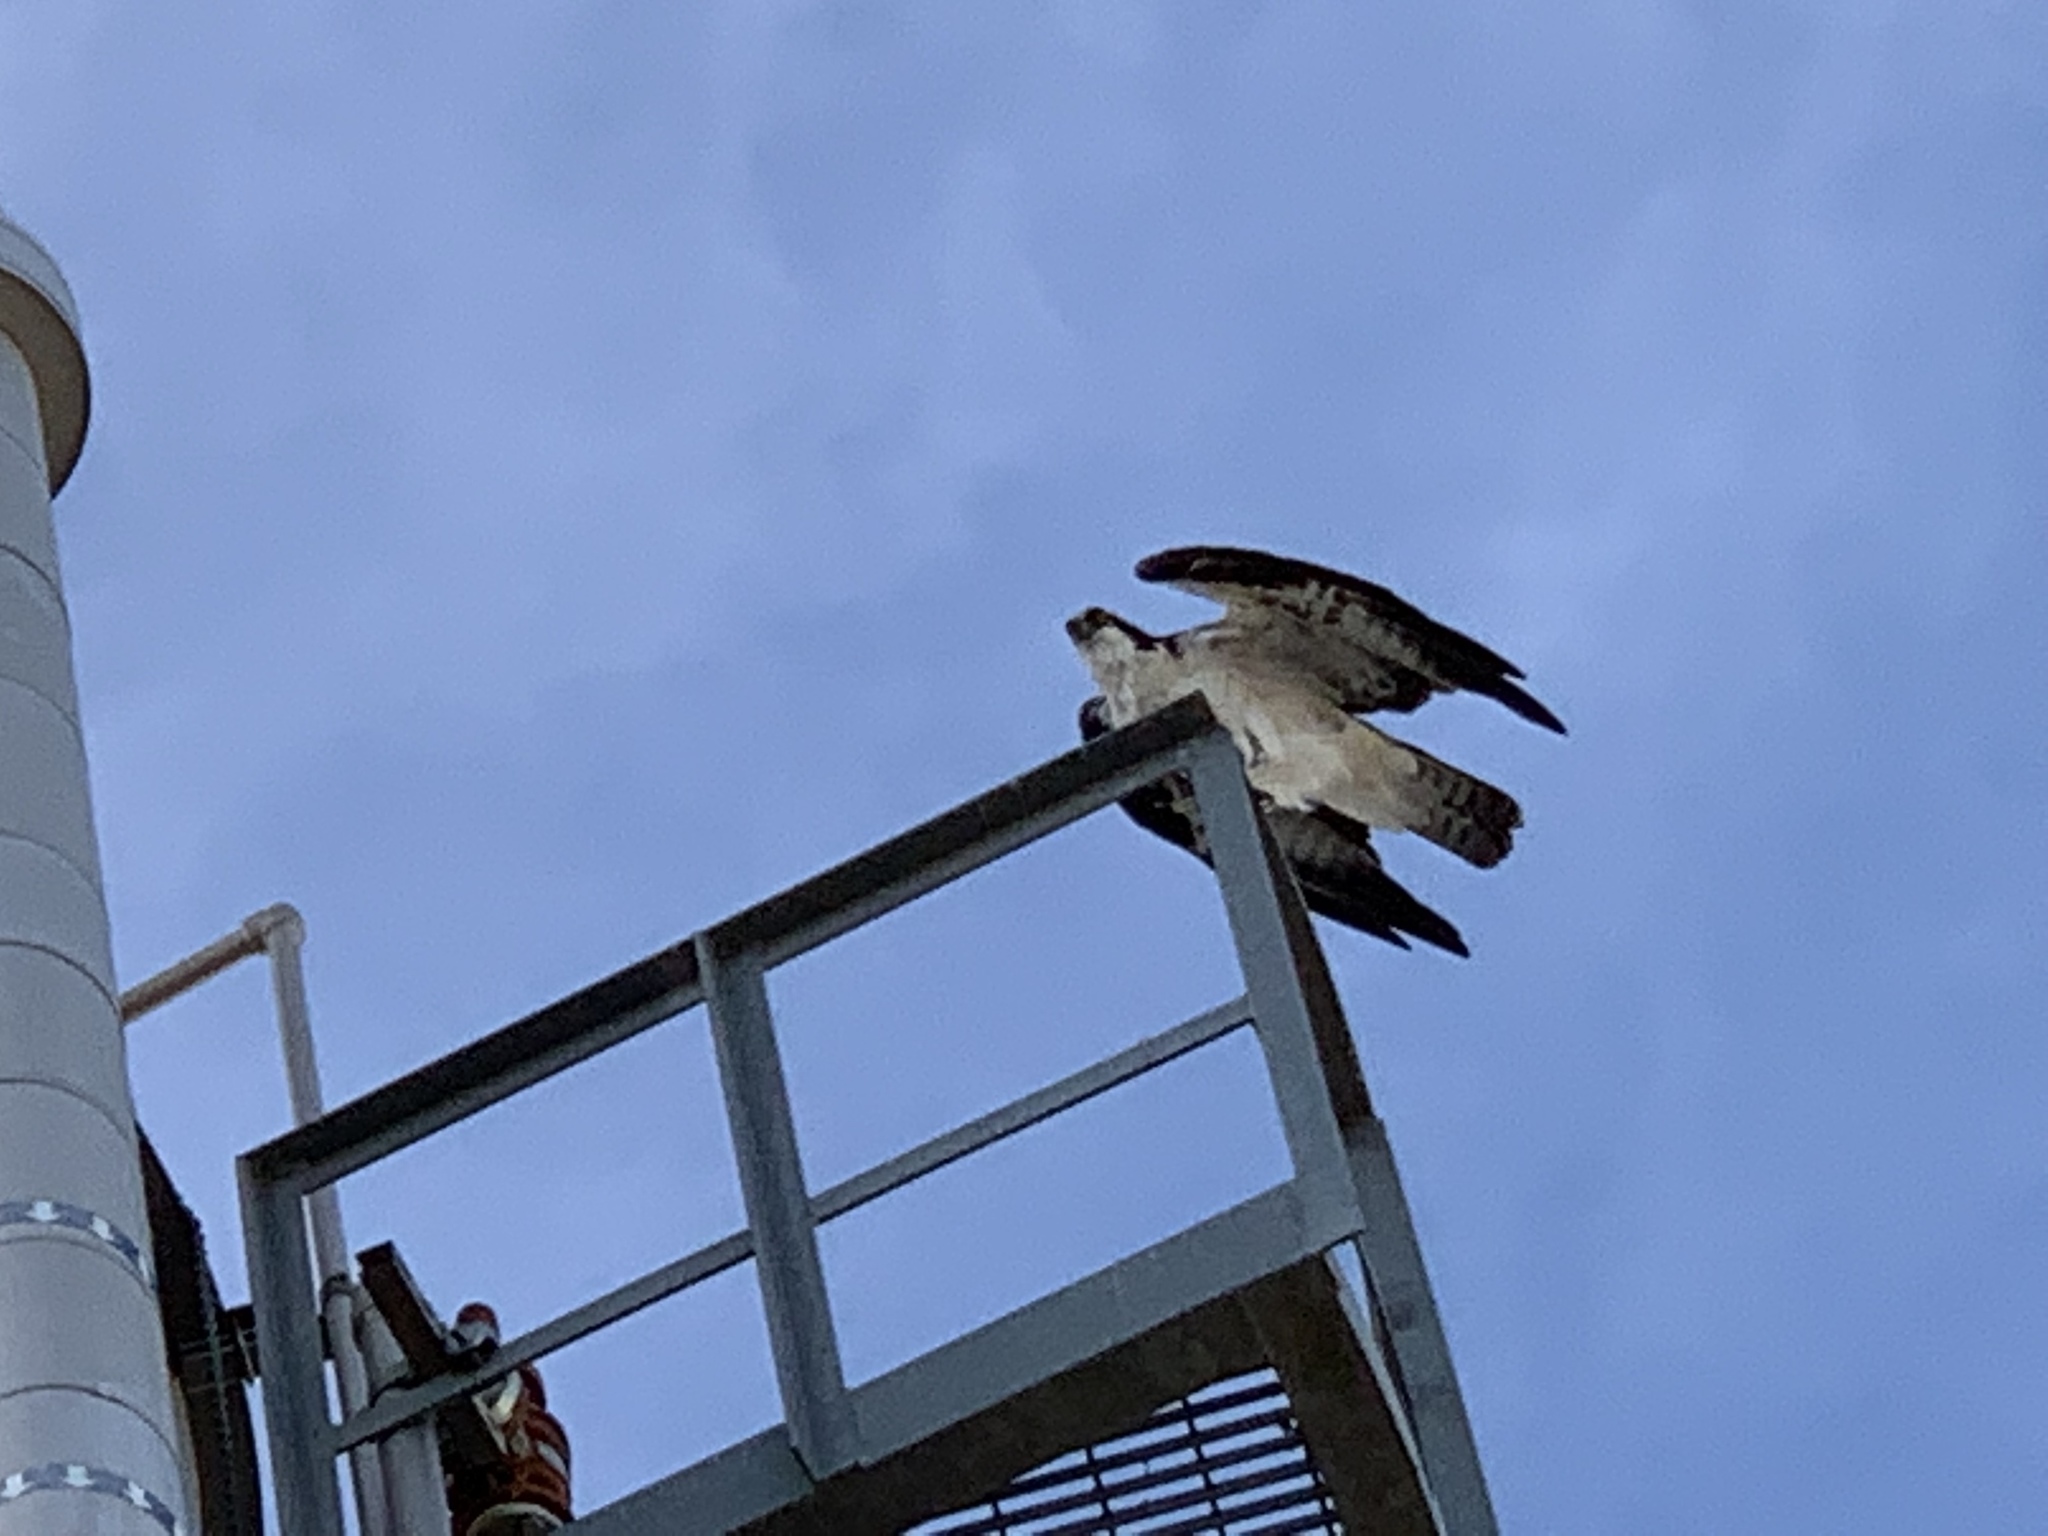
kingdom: Animalia
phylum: Chordata
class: Aves
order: Accipitriformes
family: Pandionidae
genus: Pandion
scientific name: Pandion haliaetus
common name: Osprey
